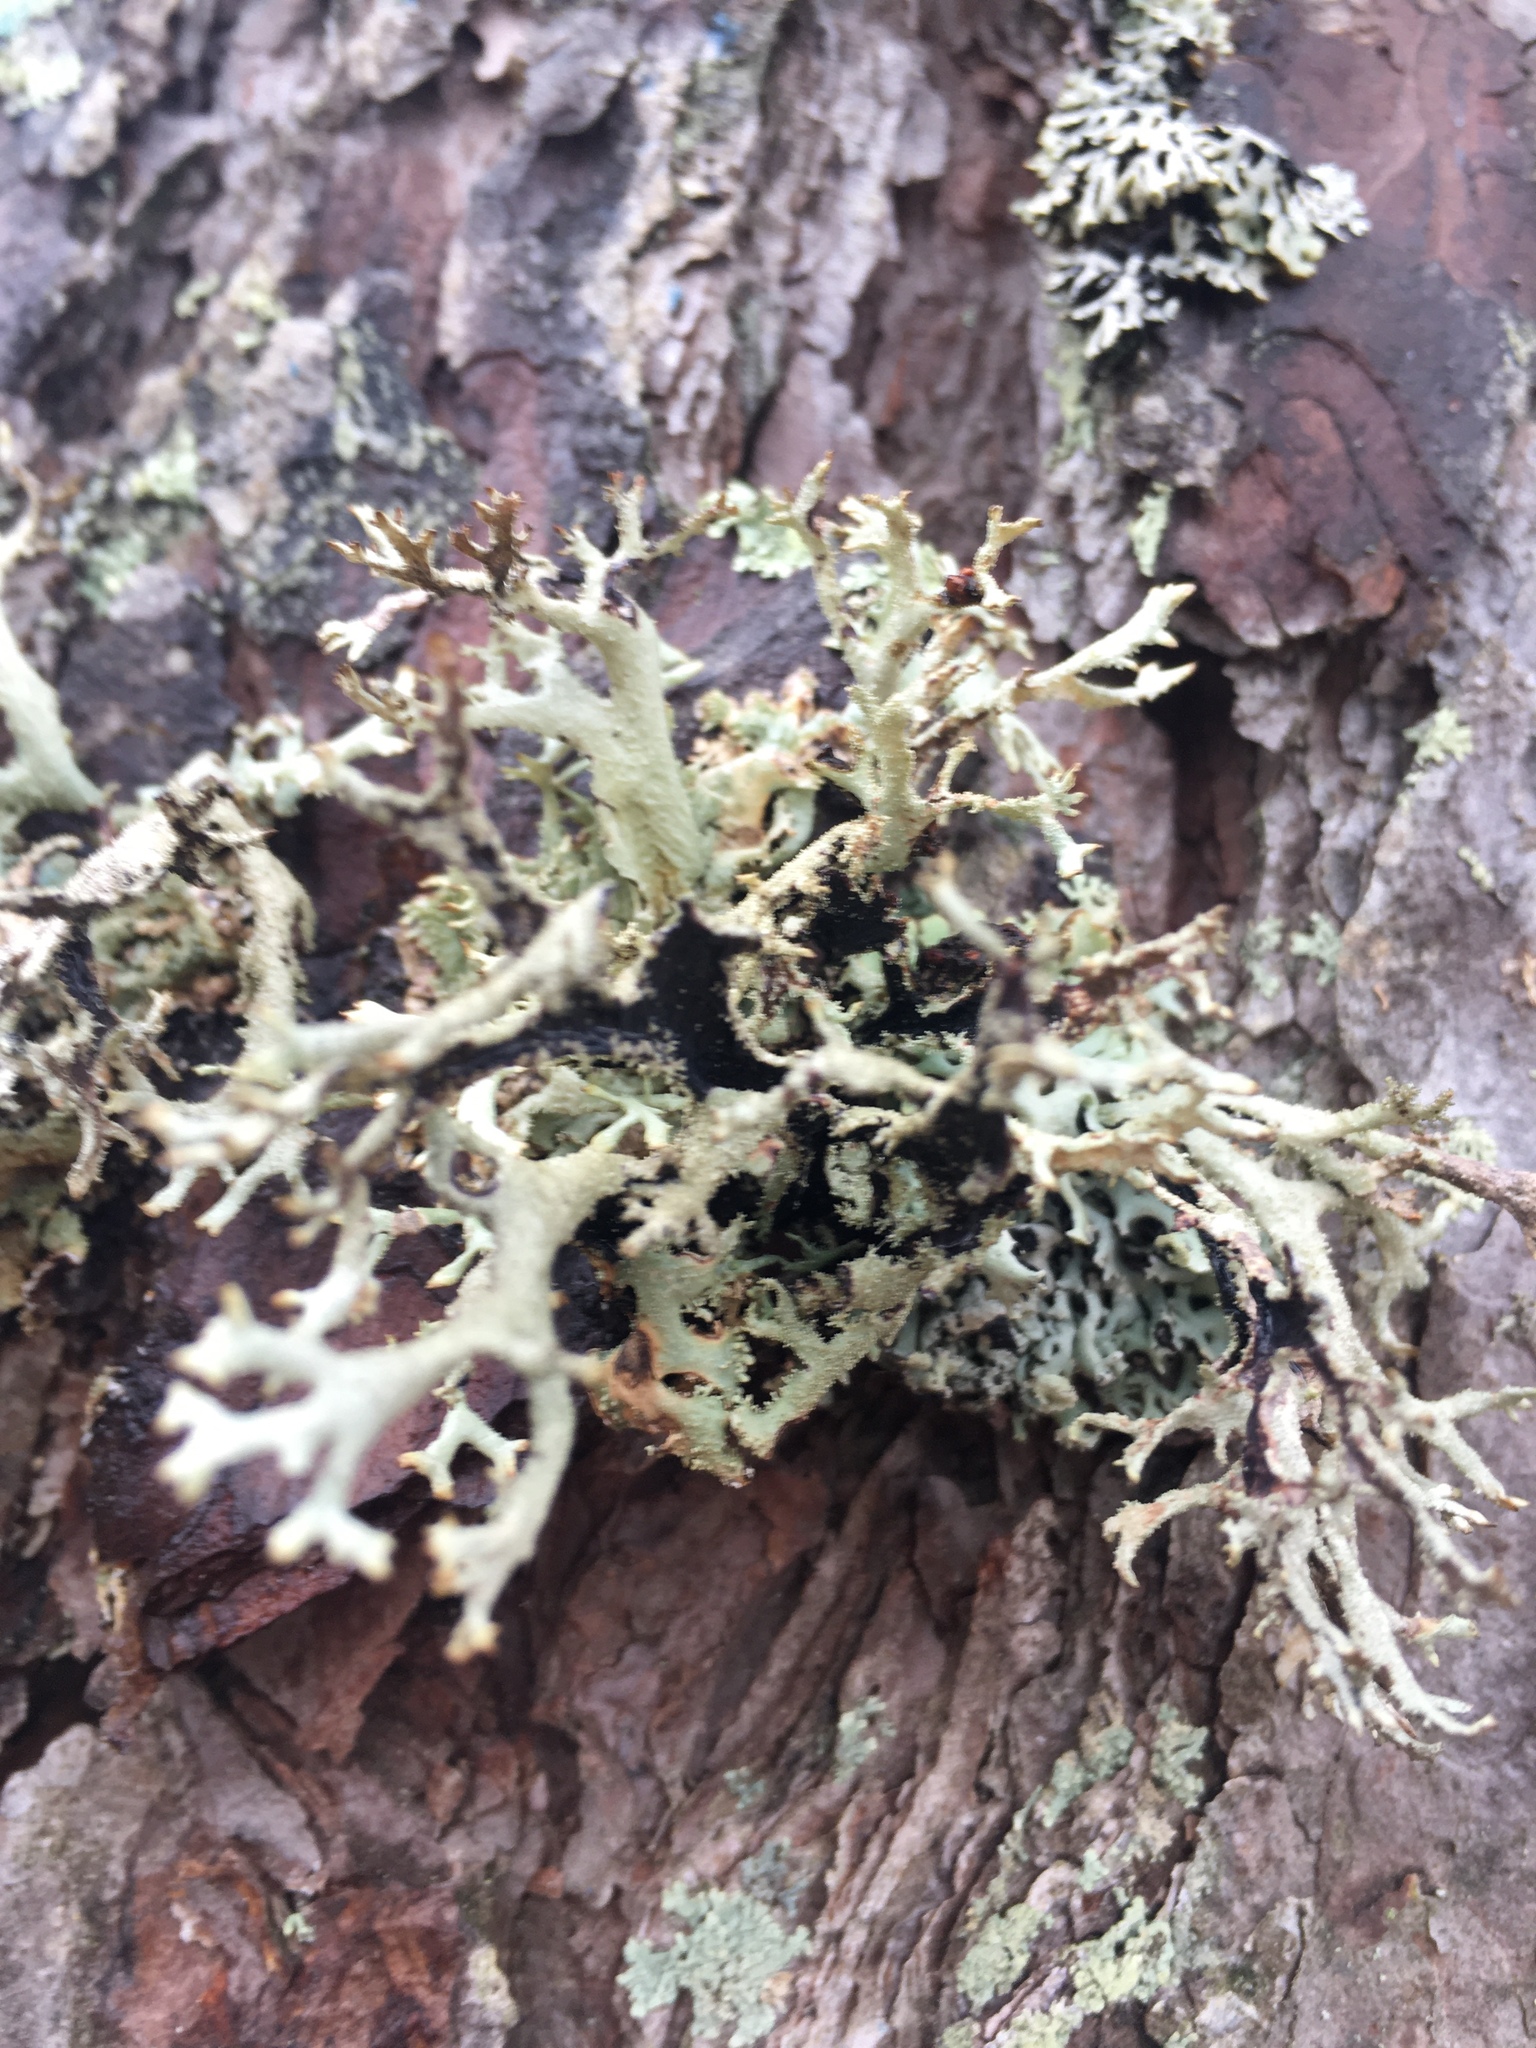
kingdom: Fungi
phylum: Ascomycota
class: Lecanoromycetes
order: Lecanorales
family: Parmeliaceae
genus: Pseudevernia
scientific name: Pseudevernia furfuracea
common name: Tree moss
